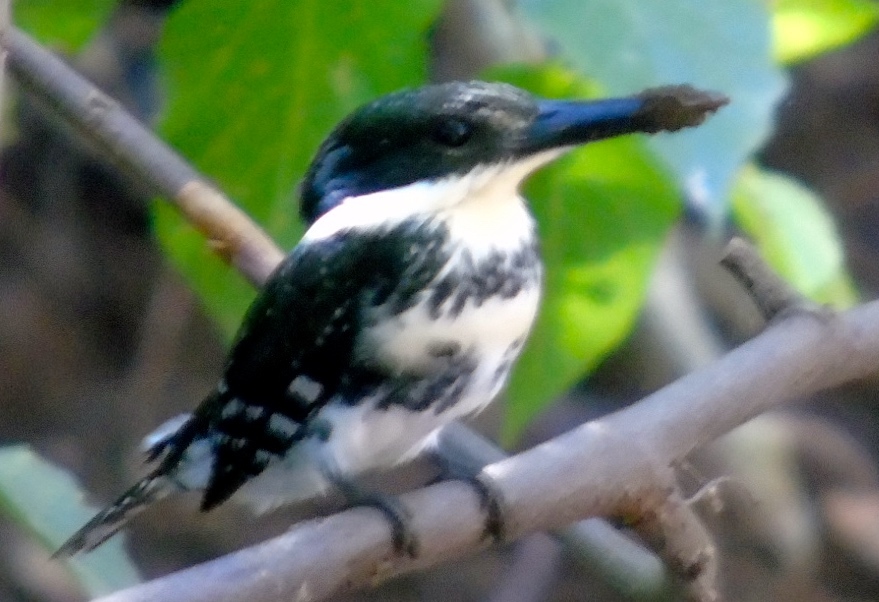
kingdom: Animalia
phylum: Chordata
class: Aves
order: Coraciiformes
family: Alcedinidae
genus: Chloroceryle
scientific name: Chloroceryle americana
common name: Green kingfisher
